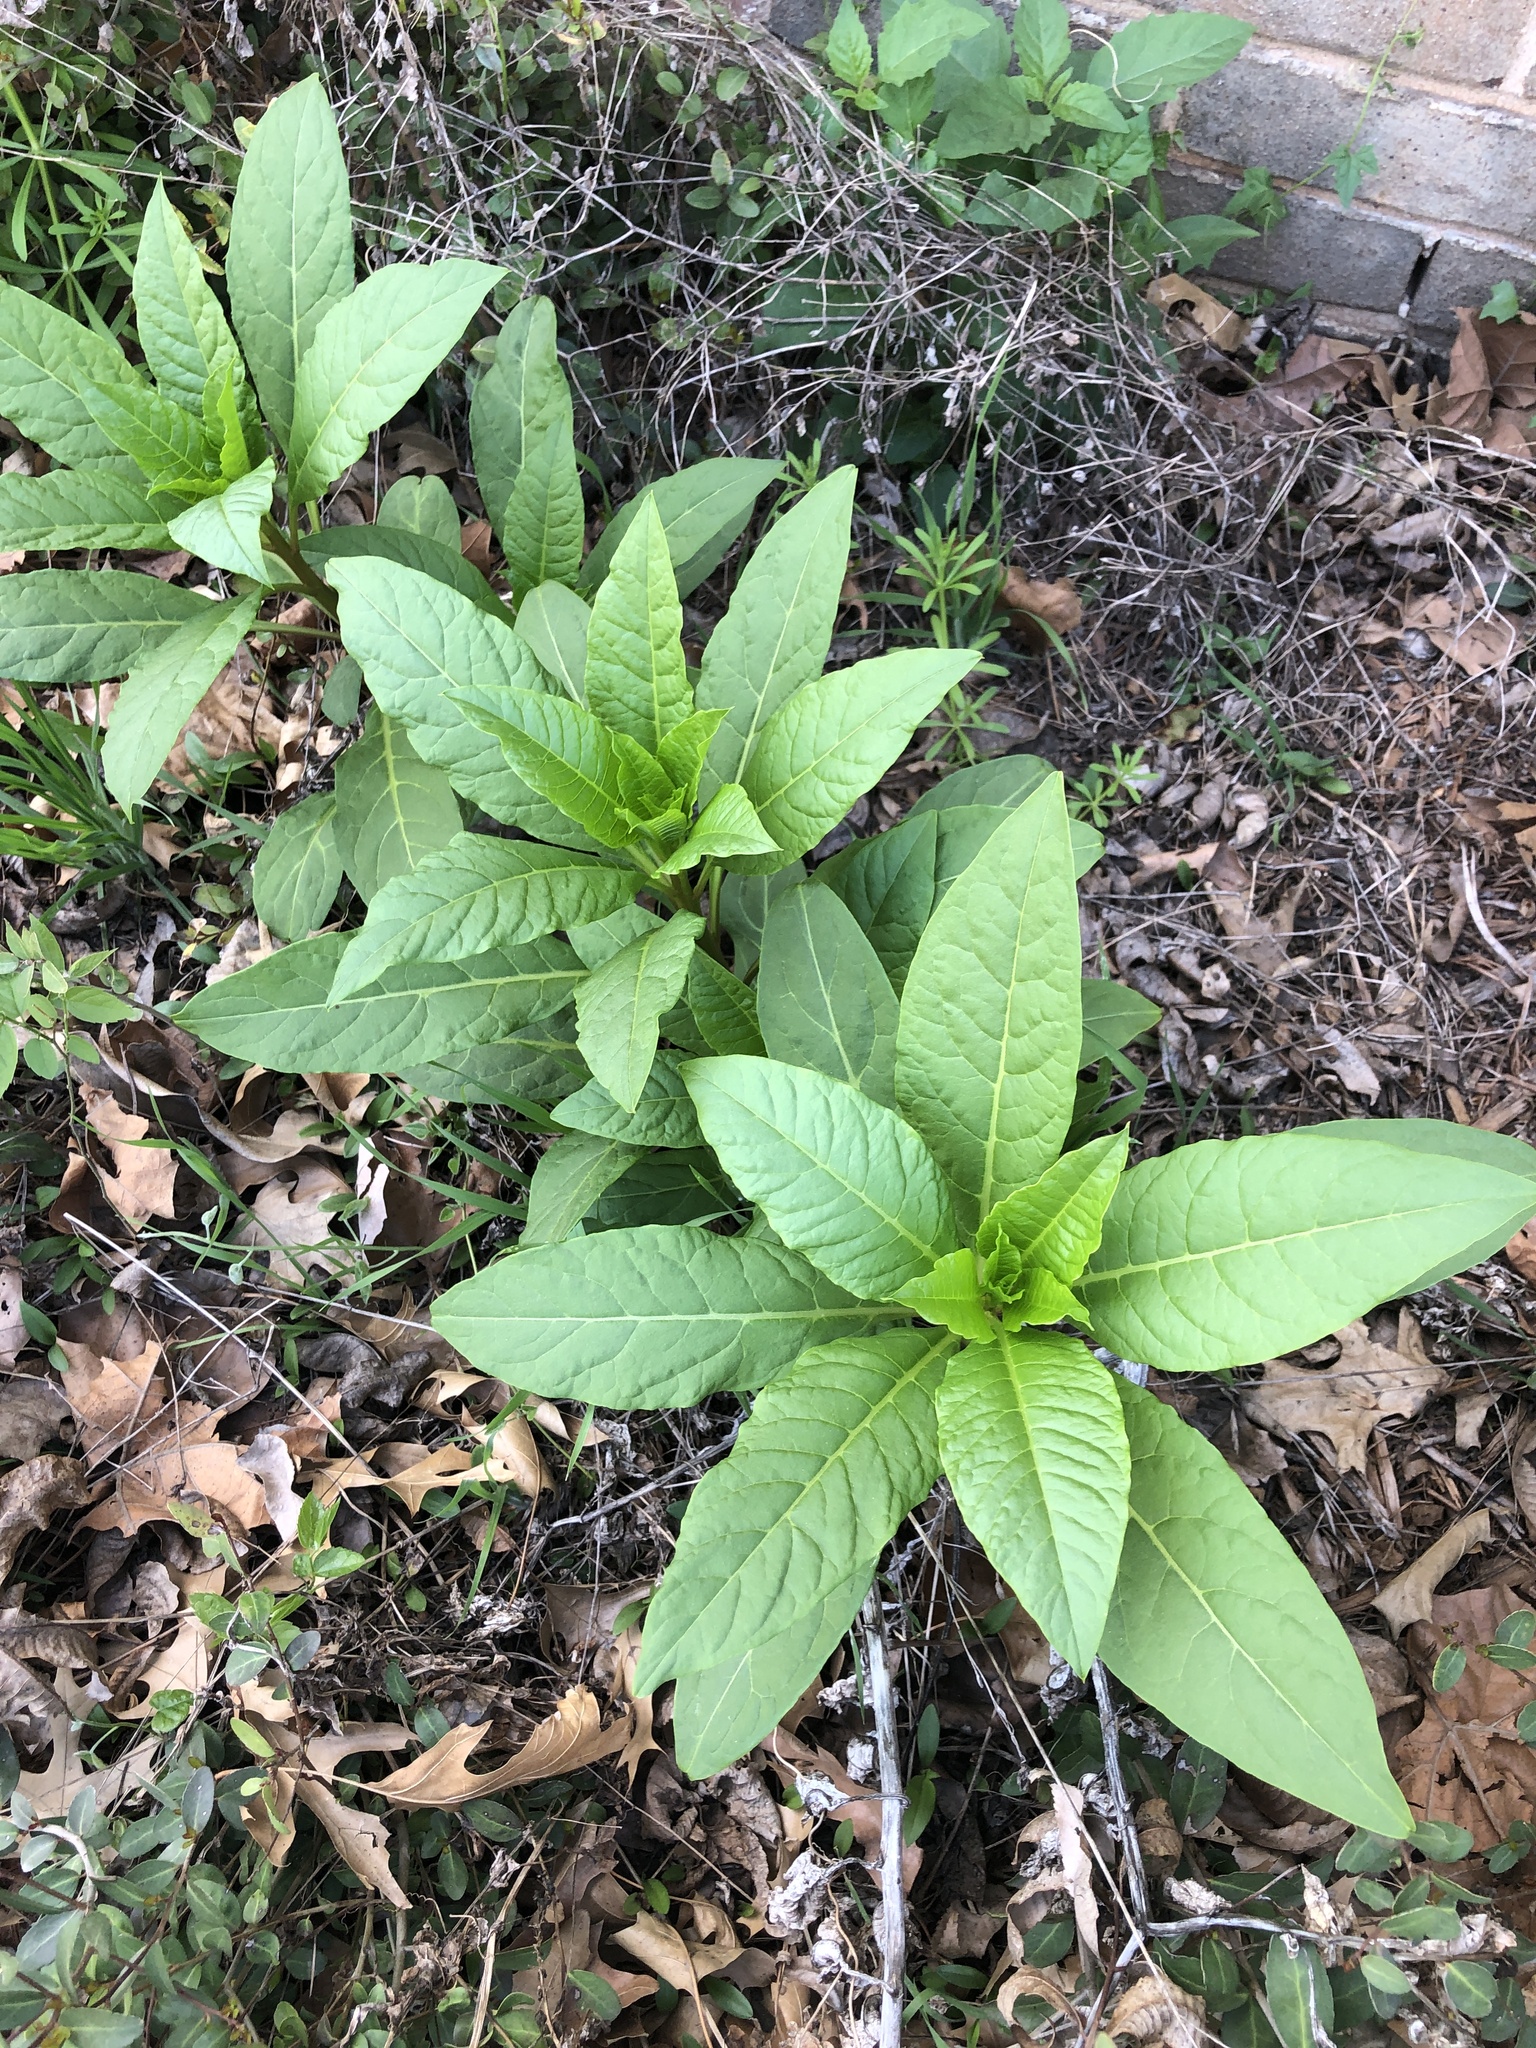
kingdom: Plantae
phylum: Tracheophyta
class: Magnoliopsida
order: Caryophyllales
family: Phytolaccaceae
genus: Phytolacca
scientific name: Phytolacca americana
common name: American pokeweed
